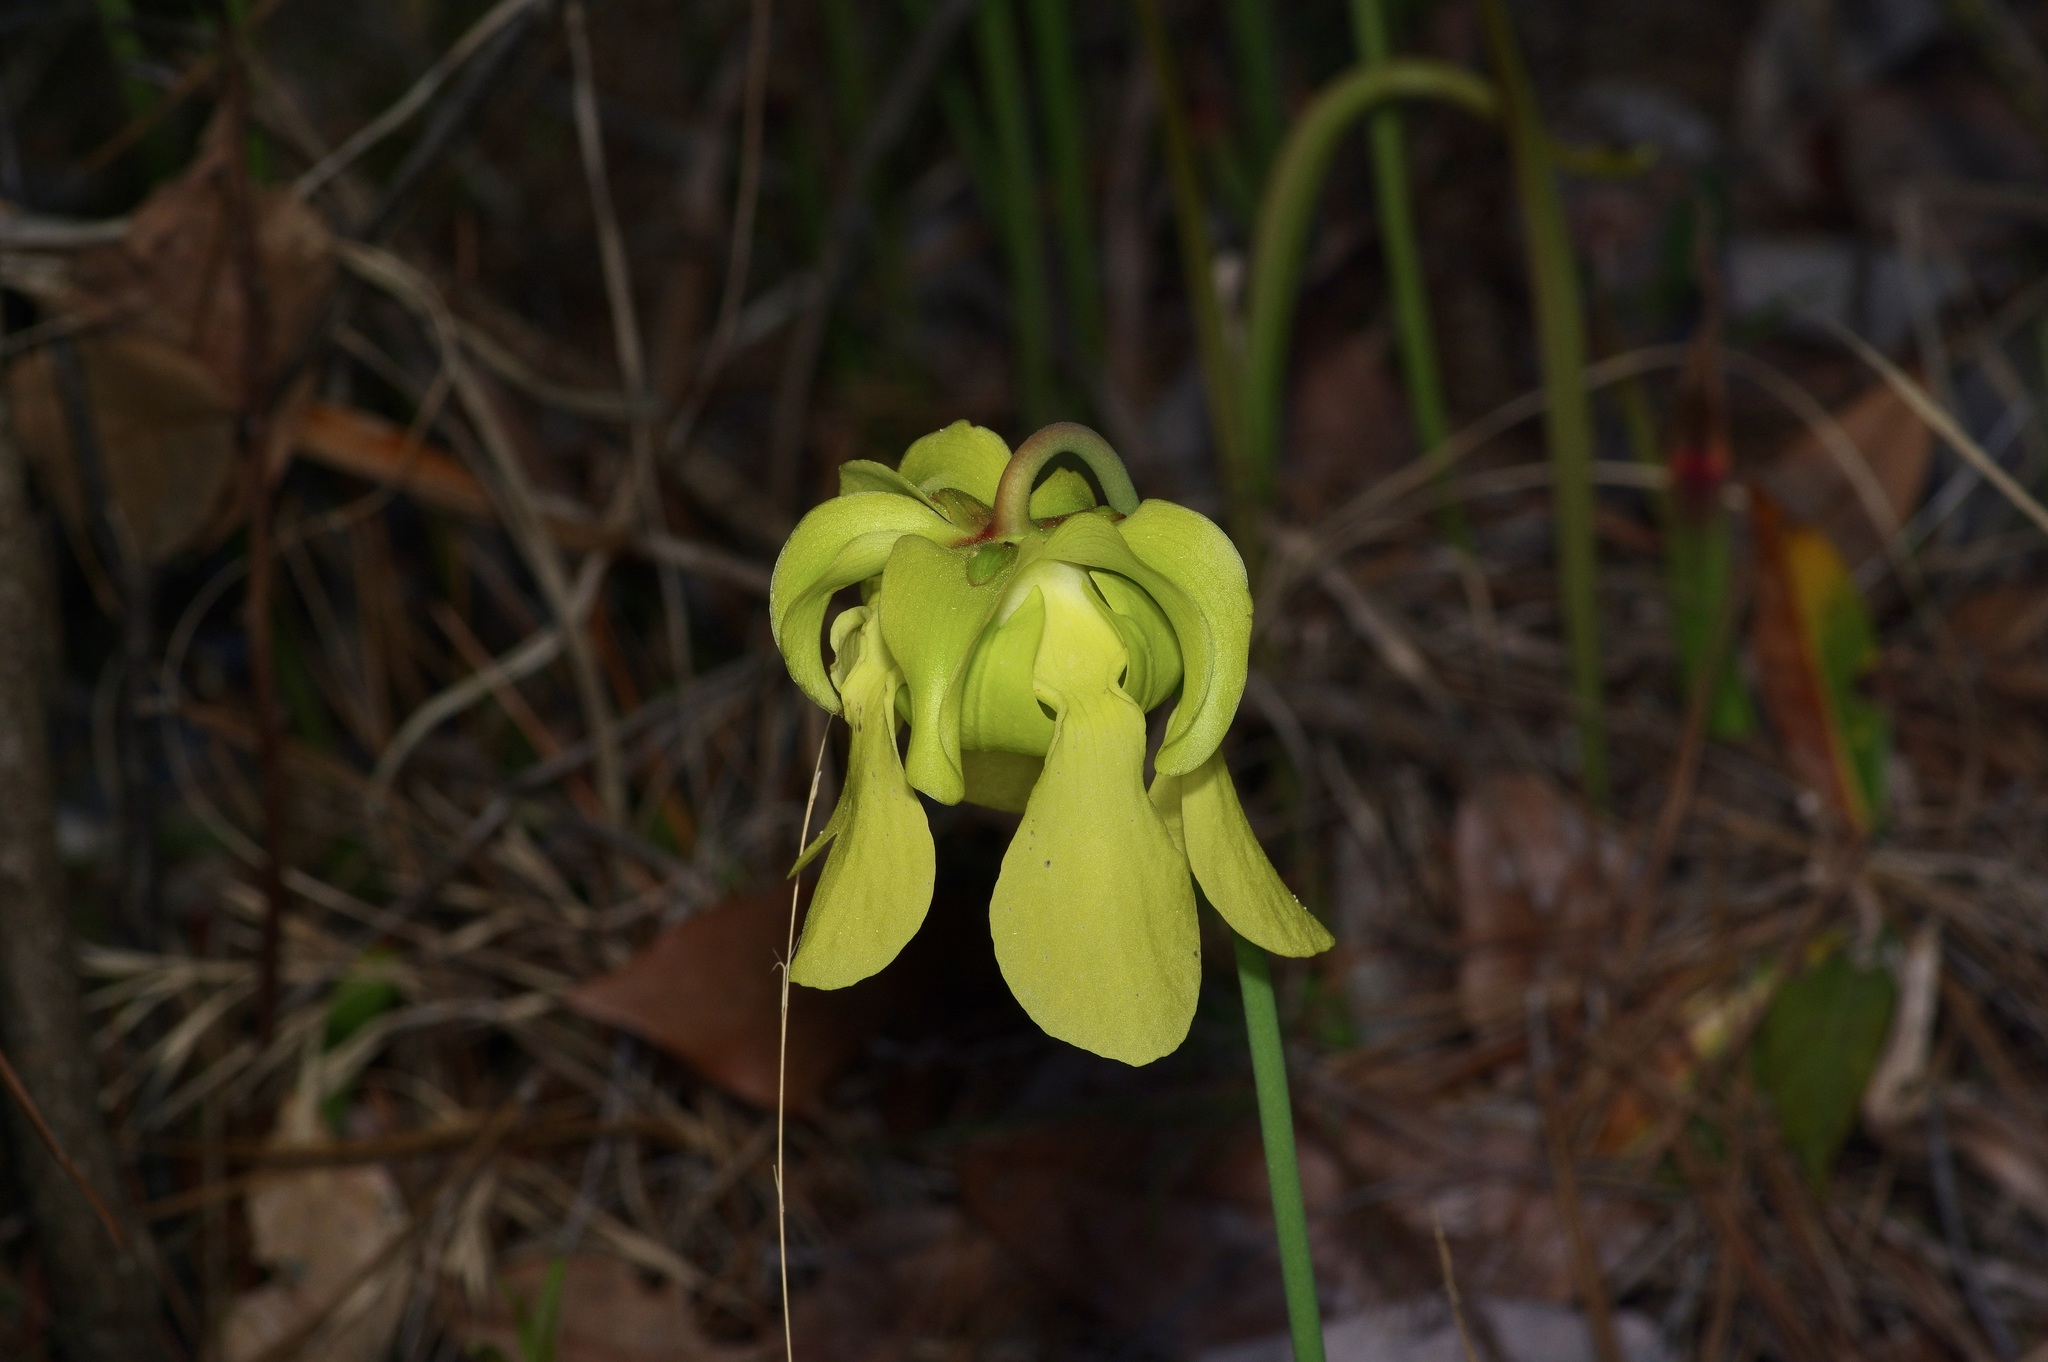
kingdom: Plantae
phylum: Tracheophyta
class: Magnoliopsida
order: Ericales
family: Sarraceniaceae
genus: Sarracenia
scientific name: Sarracenia alata
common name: Yellow trumpets
